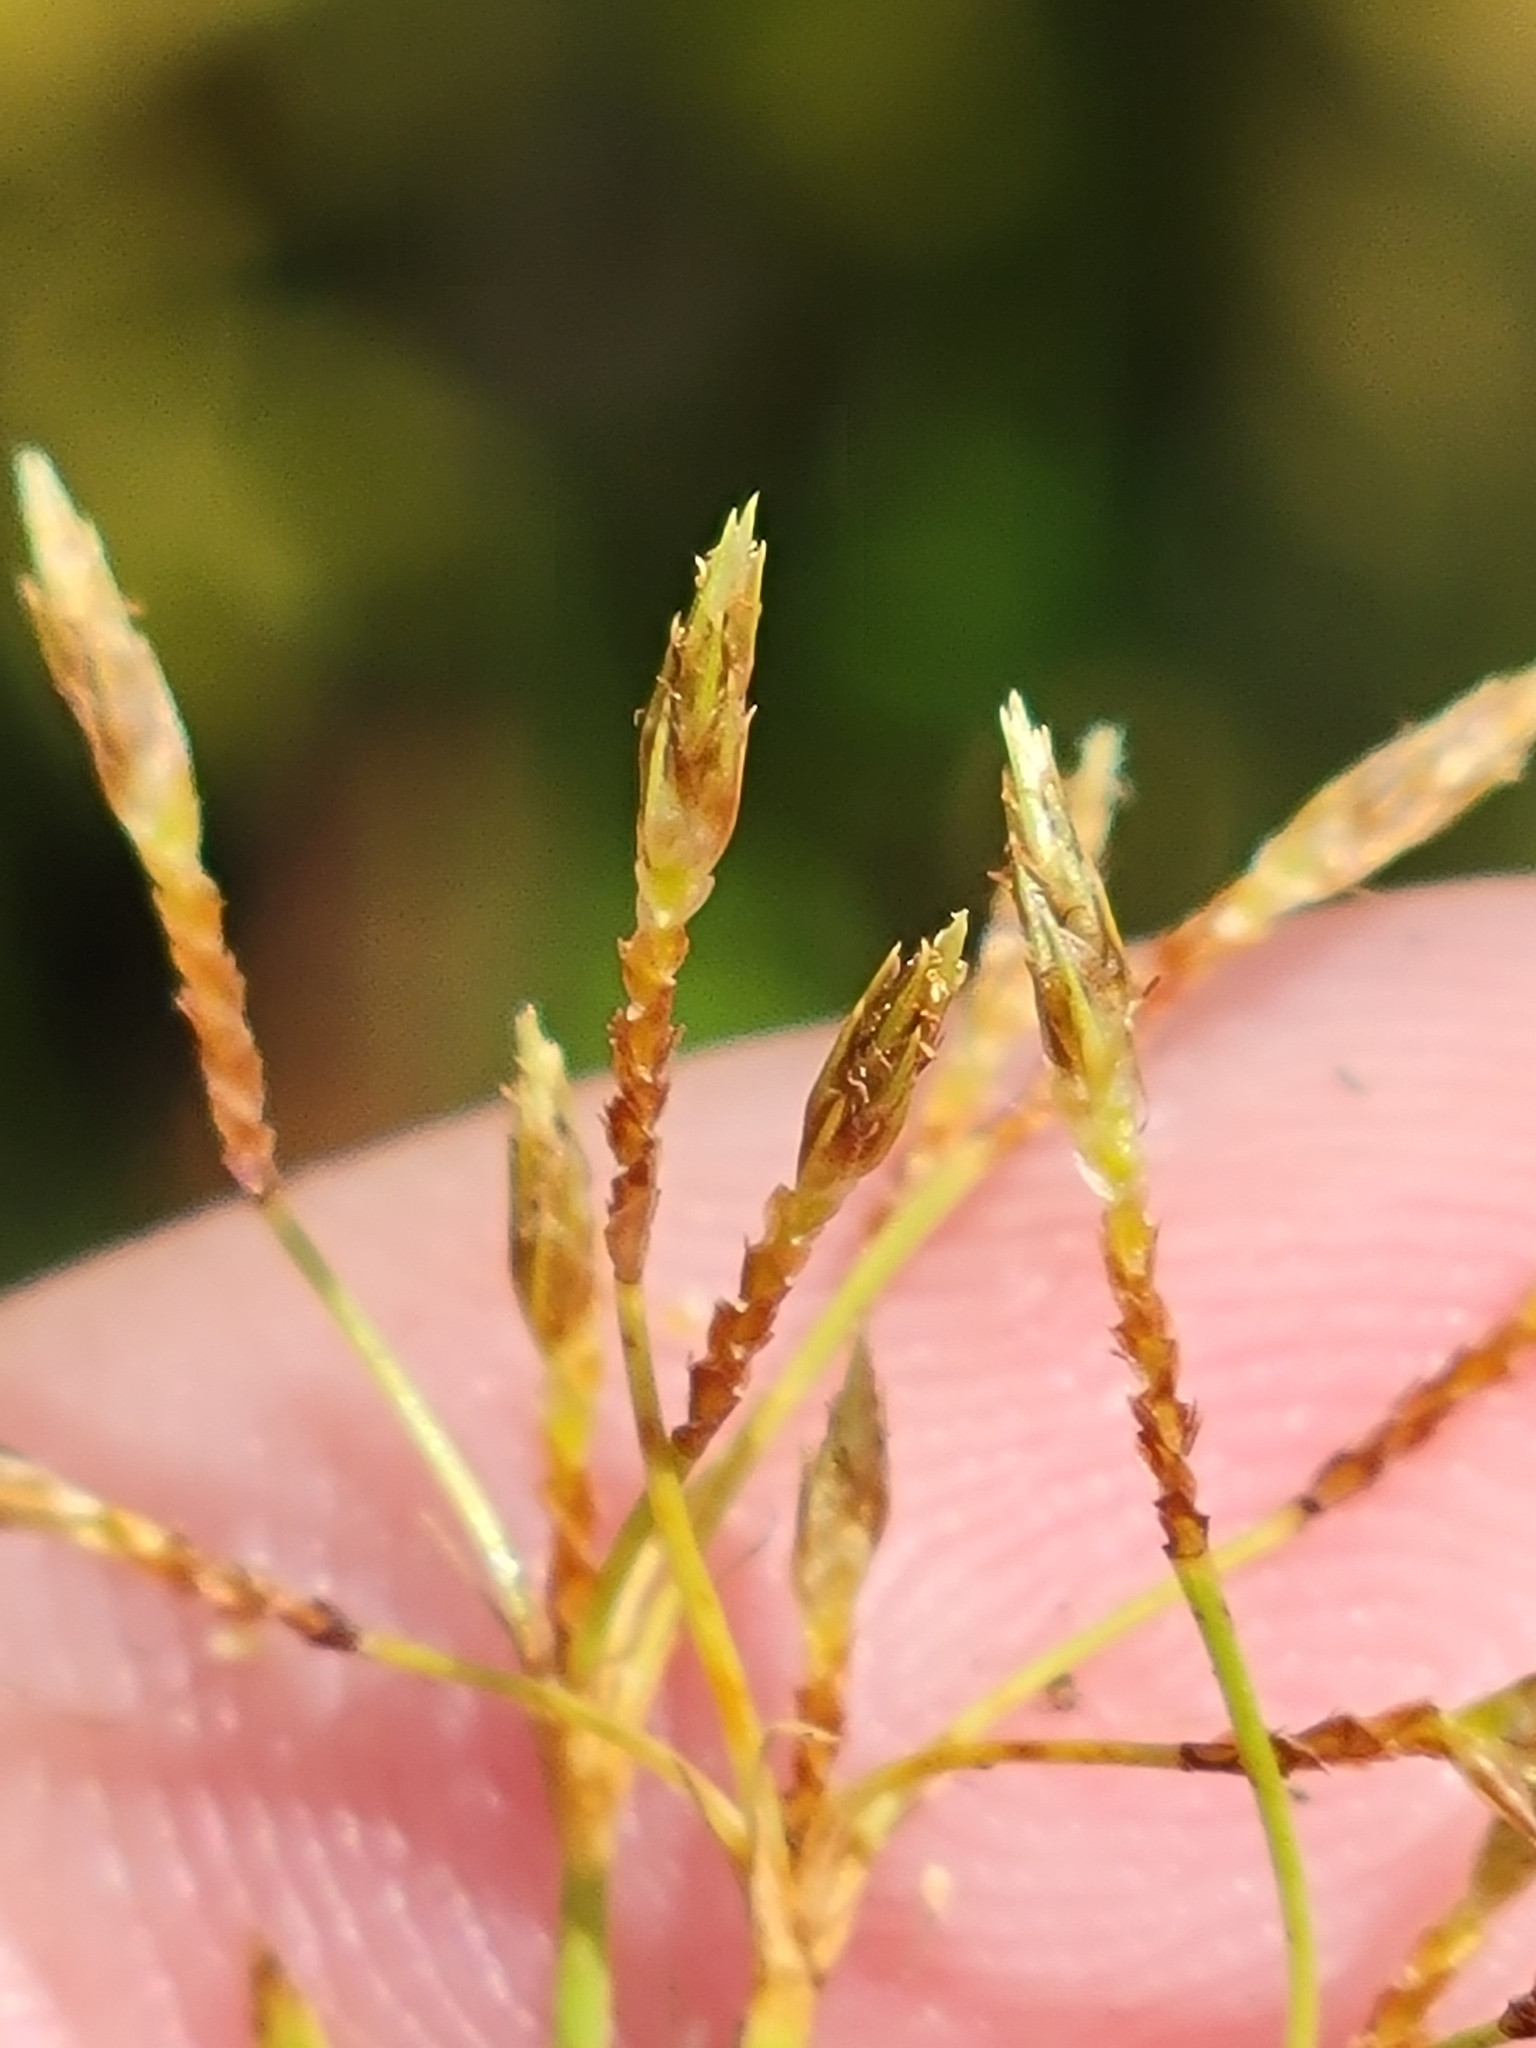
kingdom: Plantae
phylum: Tracheophyta
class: Liliopsida
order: Poales
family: Cyperaceae
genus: Fimbristylis
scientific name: Fimbristylis autumnalis
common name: Slender fimbristylis
